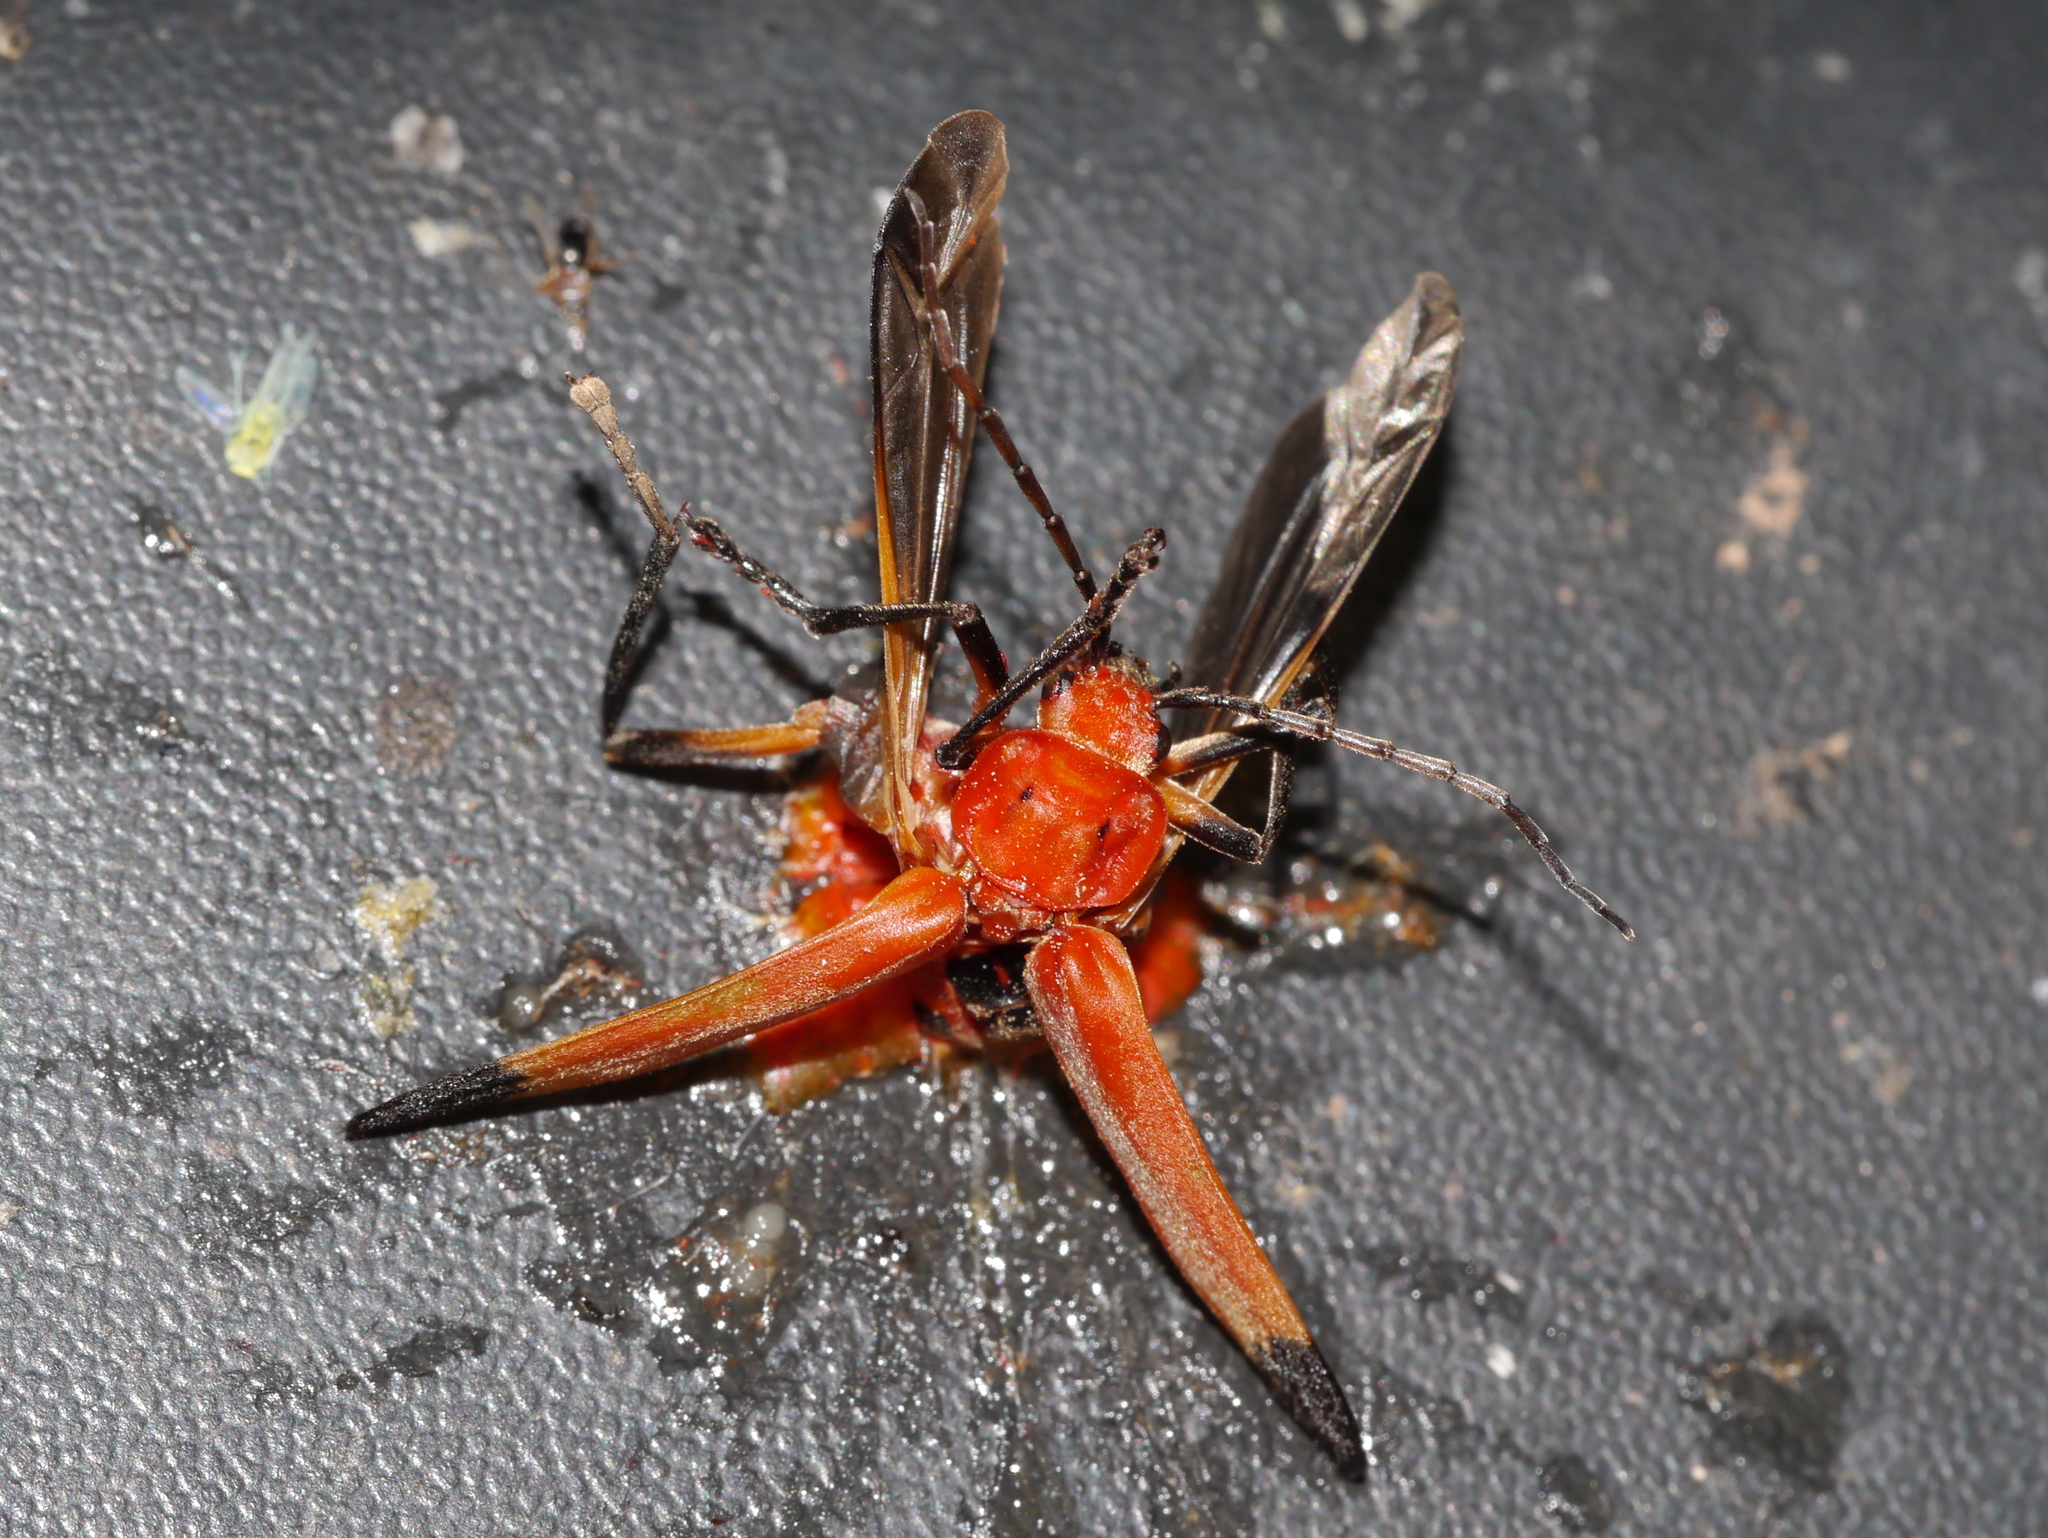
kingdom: Animalia
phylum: Arthropoda
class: Insecta
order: Coleoptera
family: Cantharidae
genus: Chauliognathus
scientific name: Chauliognathus lecontei
